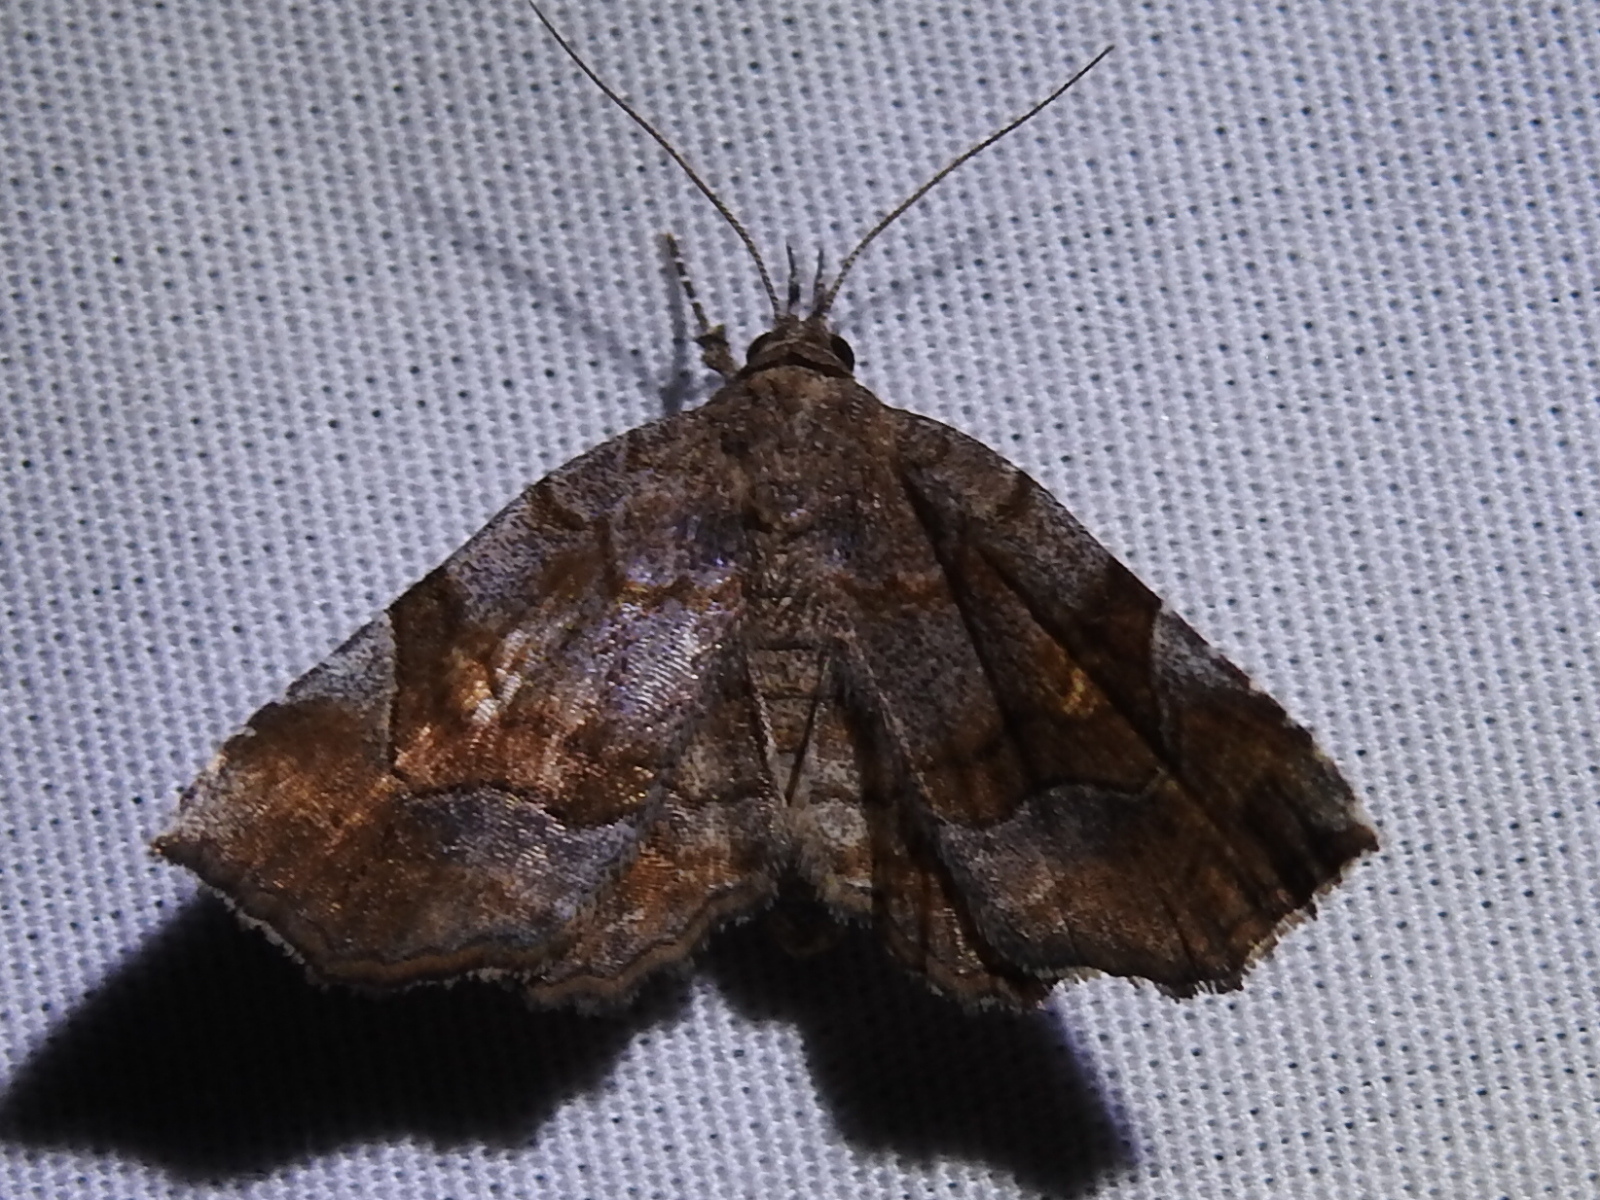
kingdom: Animalia
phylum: Arthropoda
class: Insecta
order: Lepidoptera
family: Erebidae
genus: Pangrapta
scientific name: Pangrapta decoralis
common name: Decorated owlet
